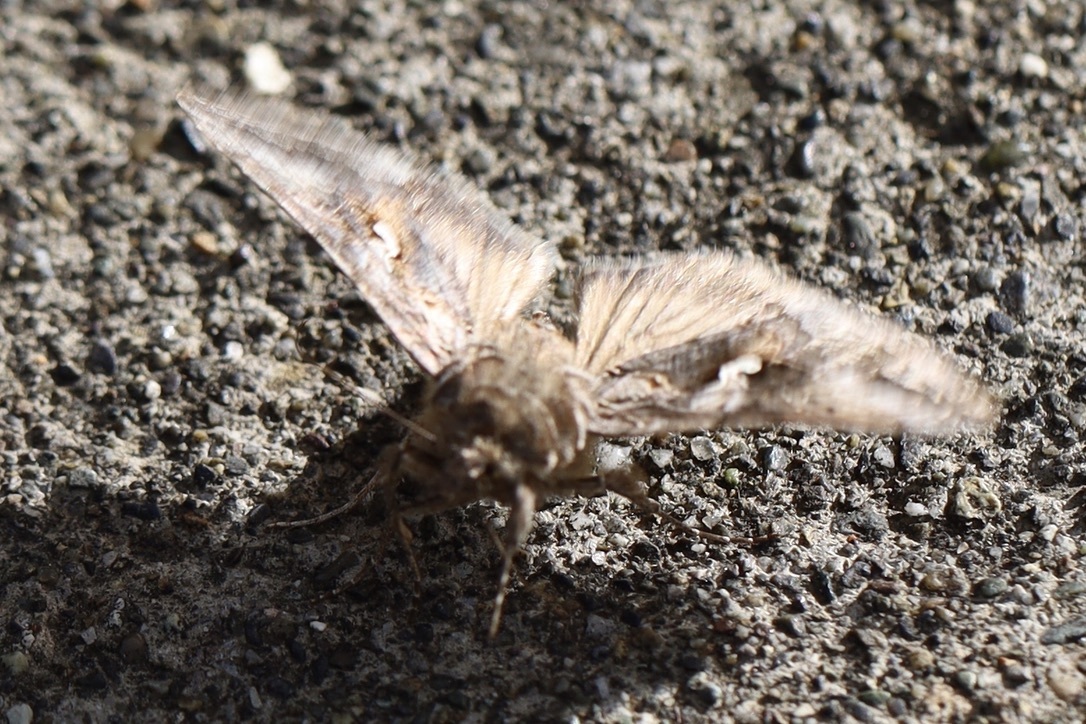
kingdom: Animalia
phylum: Arthropoda
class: Insecta
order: Lepidoptera
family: Noctuidae
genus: Autographa
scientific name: Autographa californica
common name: Alfalfa looper
